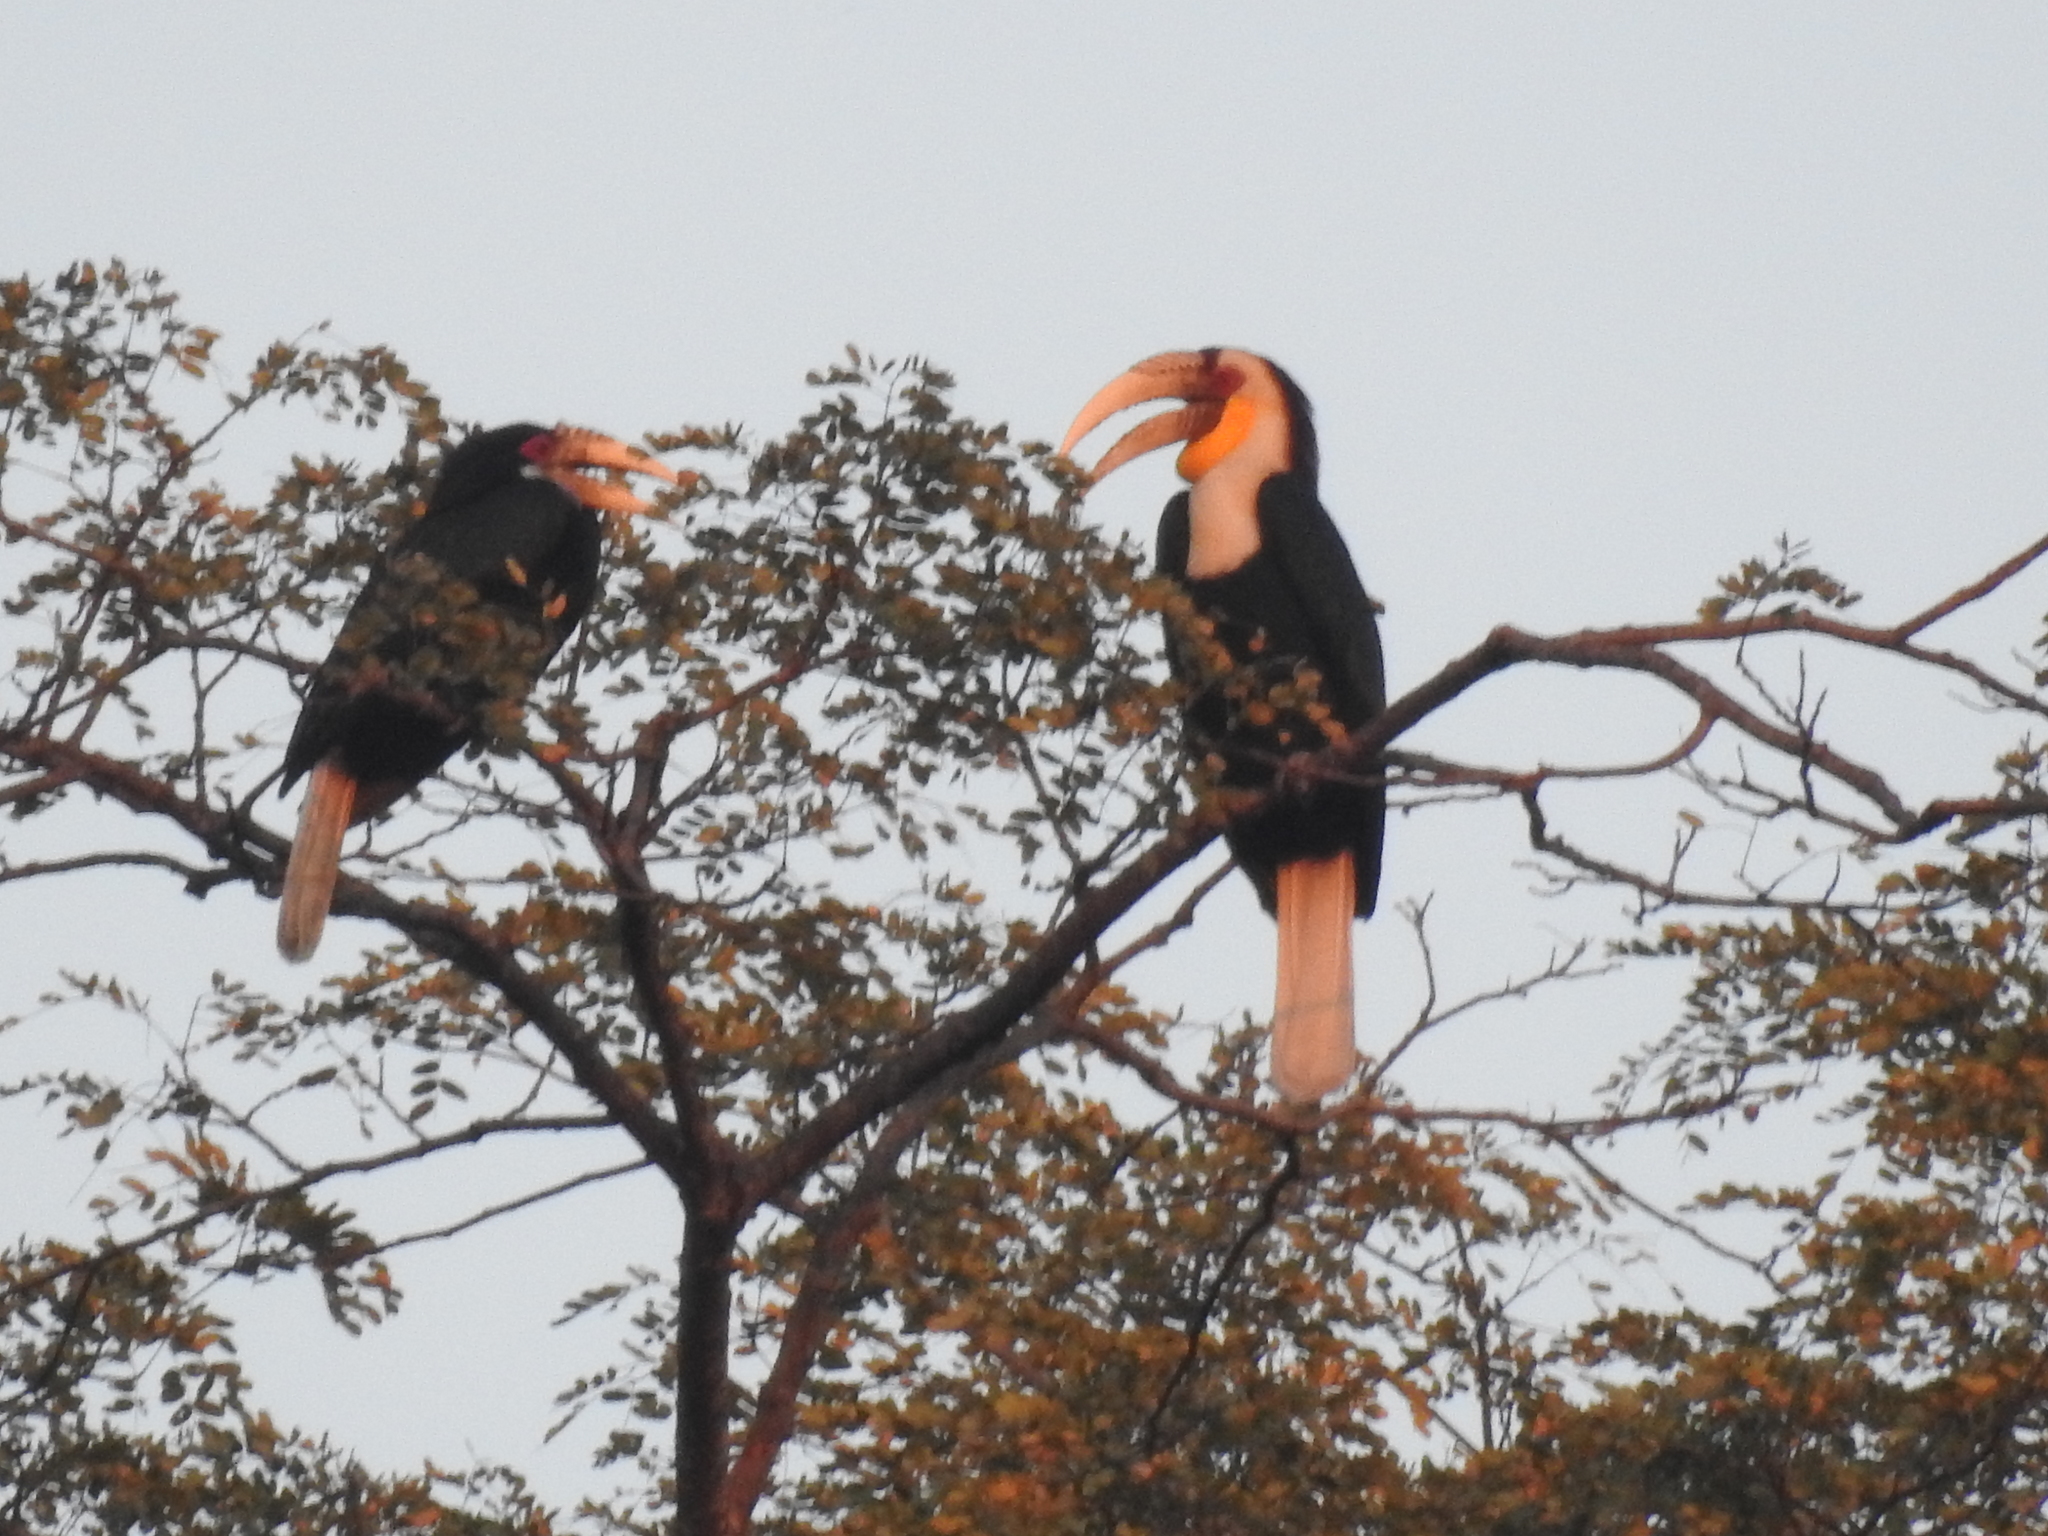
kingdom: Animalia
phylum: Chordata
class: Aves
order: Bucerotiformes
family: Bucerotidae
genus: Rhyticeros
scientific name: Rhyticeros undulatus
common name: Wreathed hornbill
